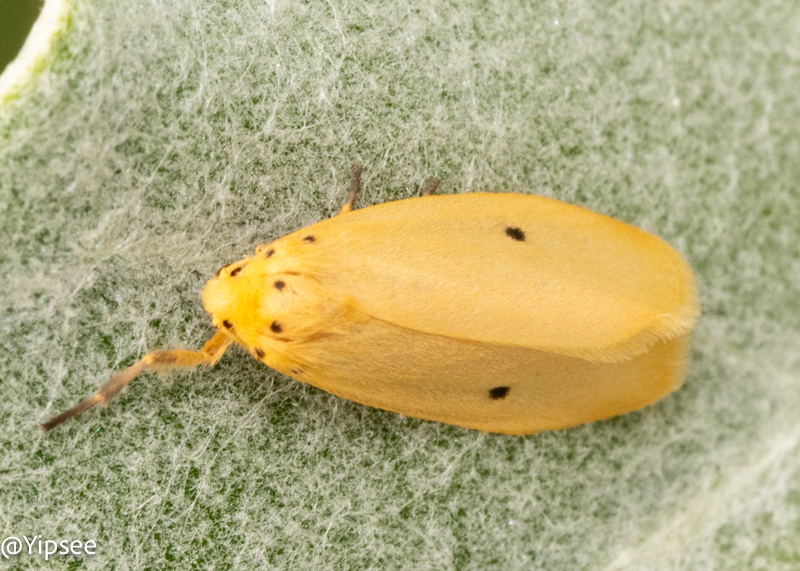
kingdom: Animalia
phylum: Arthropoda
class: Insecta
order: Lepidoptera
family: Erebidae
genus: Miltochrista
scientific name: Miltochrista calamaria
